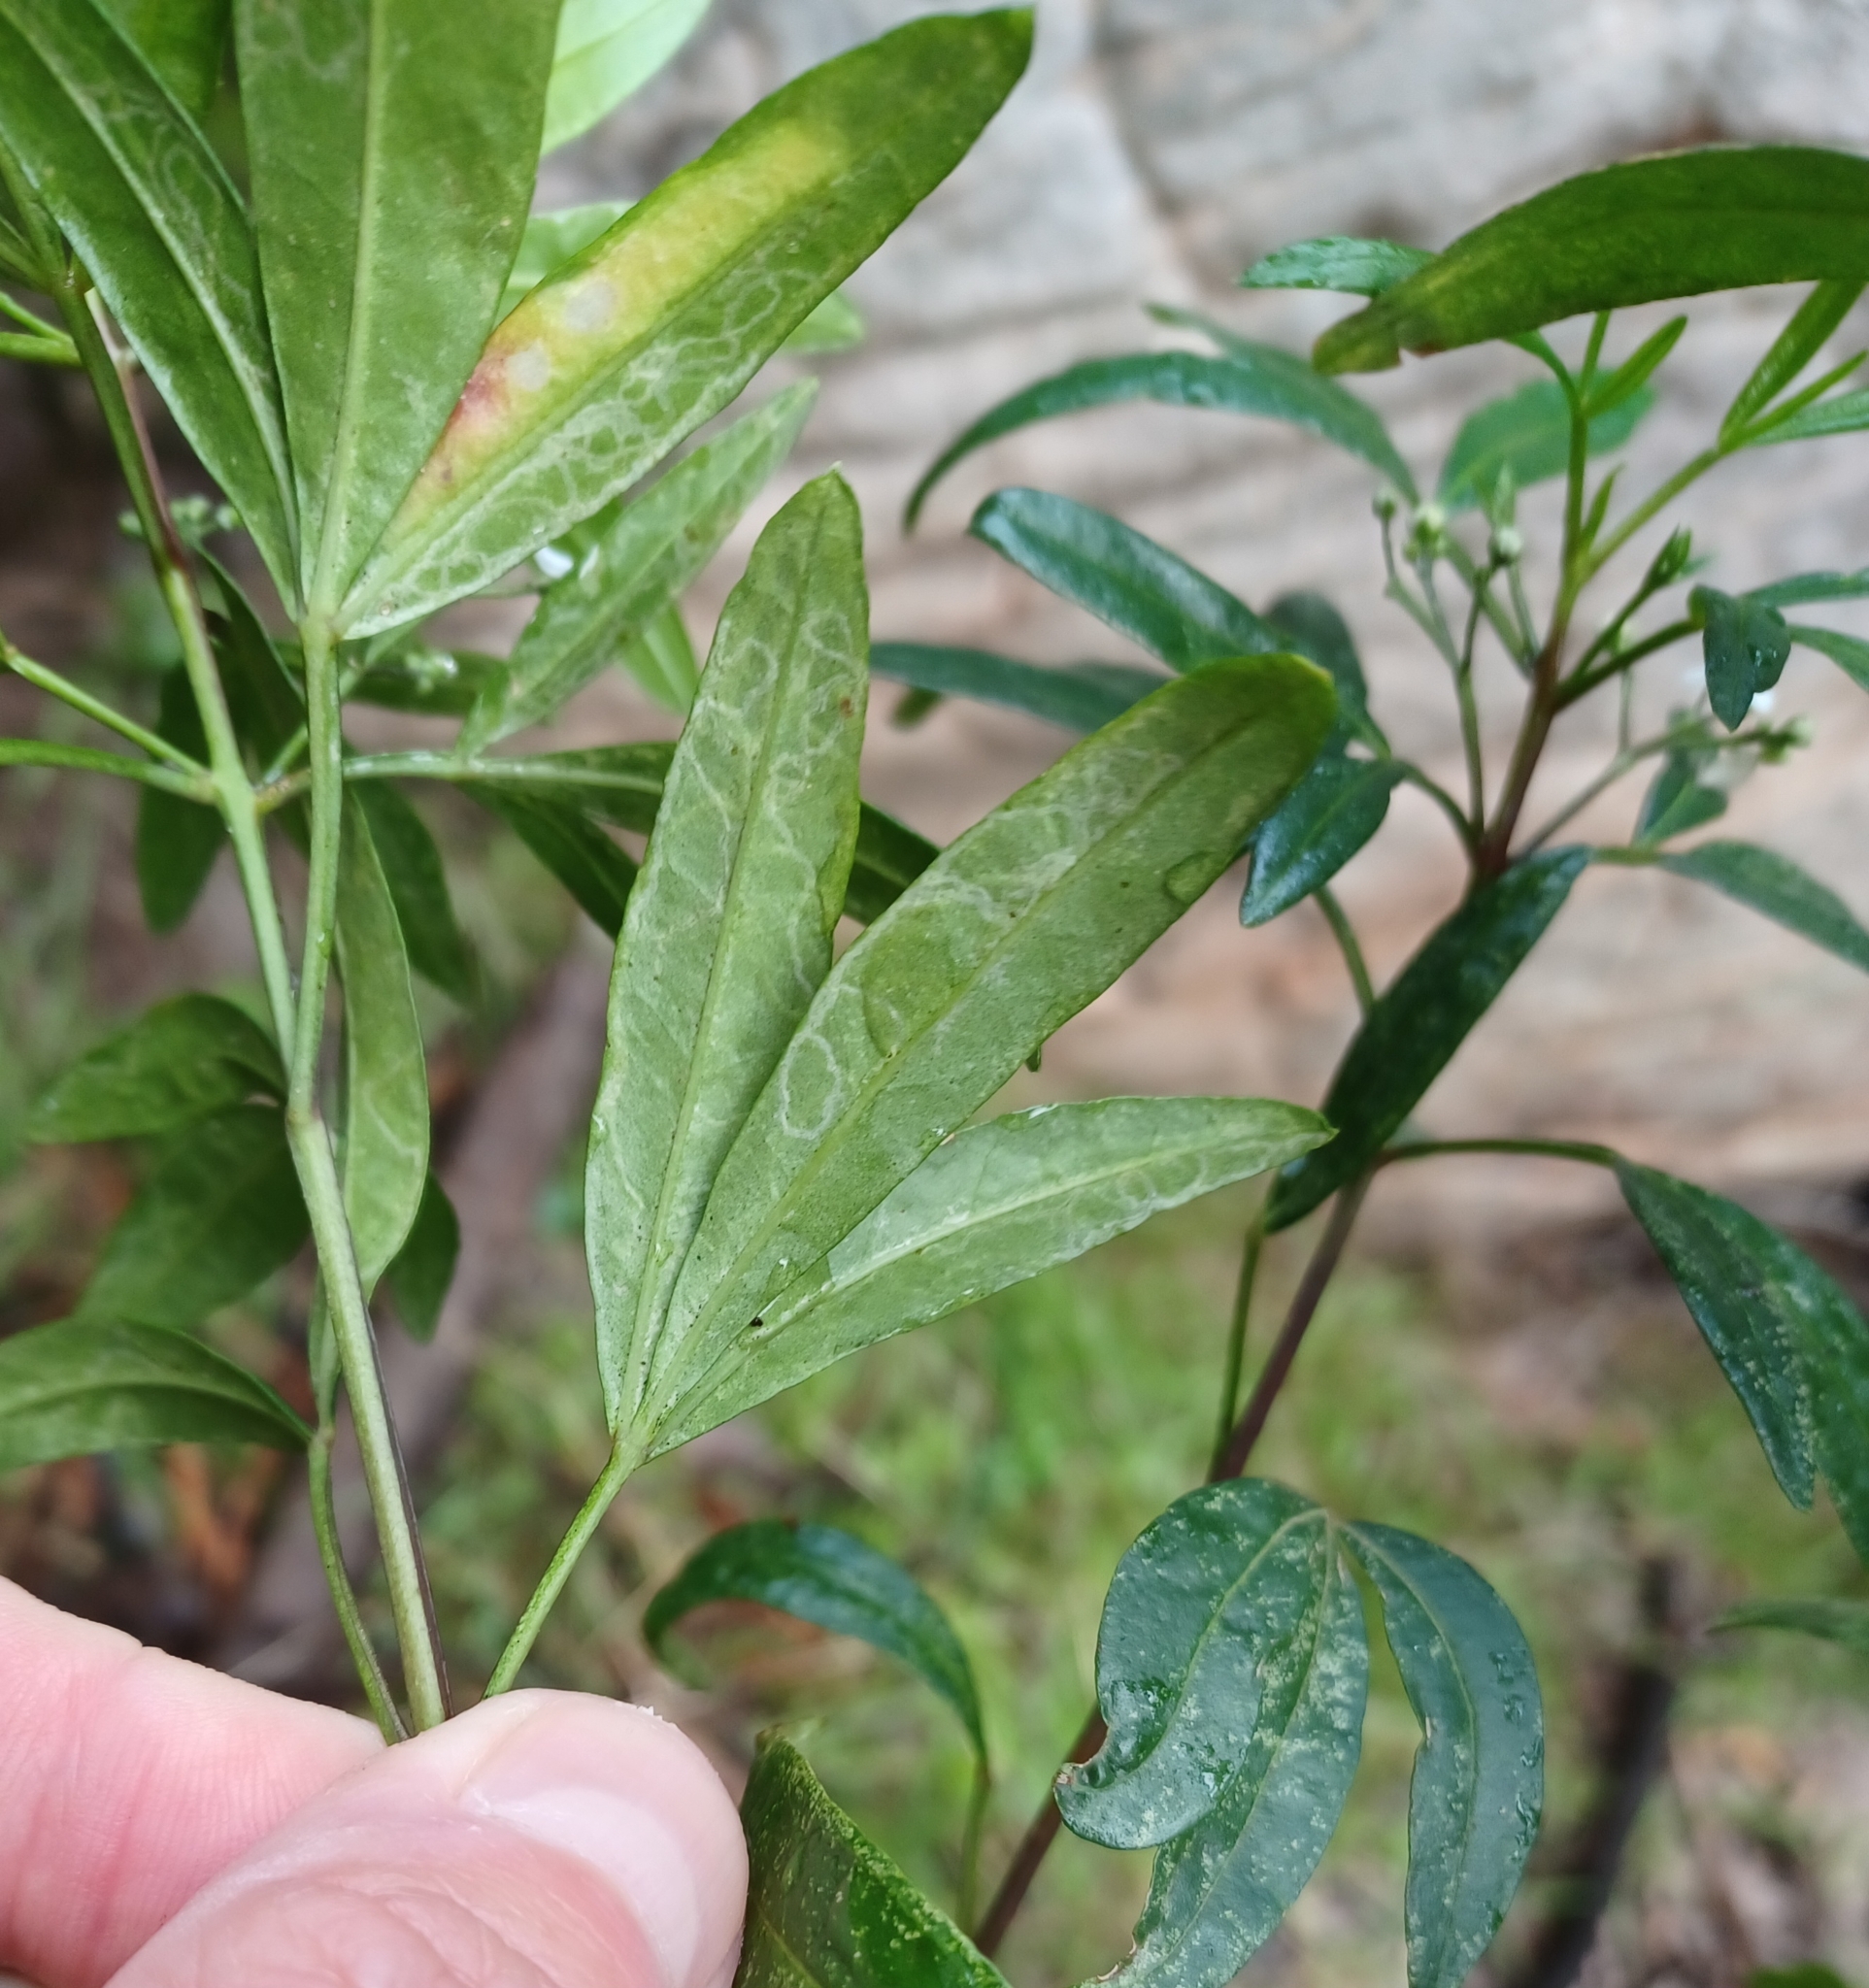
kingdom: Plantae
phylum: Tracheophyta
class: Magnoliopsida
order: Sapindales
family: Rutaceae
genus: Zieria
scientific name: Zieria oreocena
